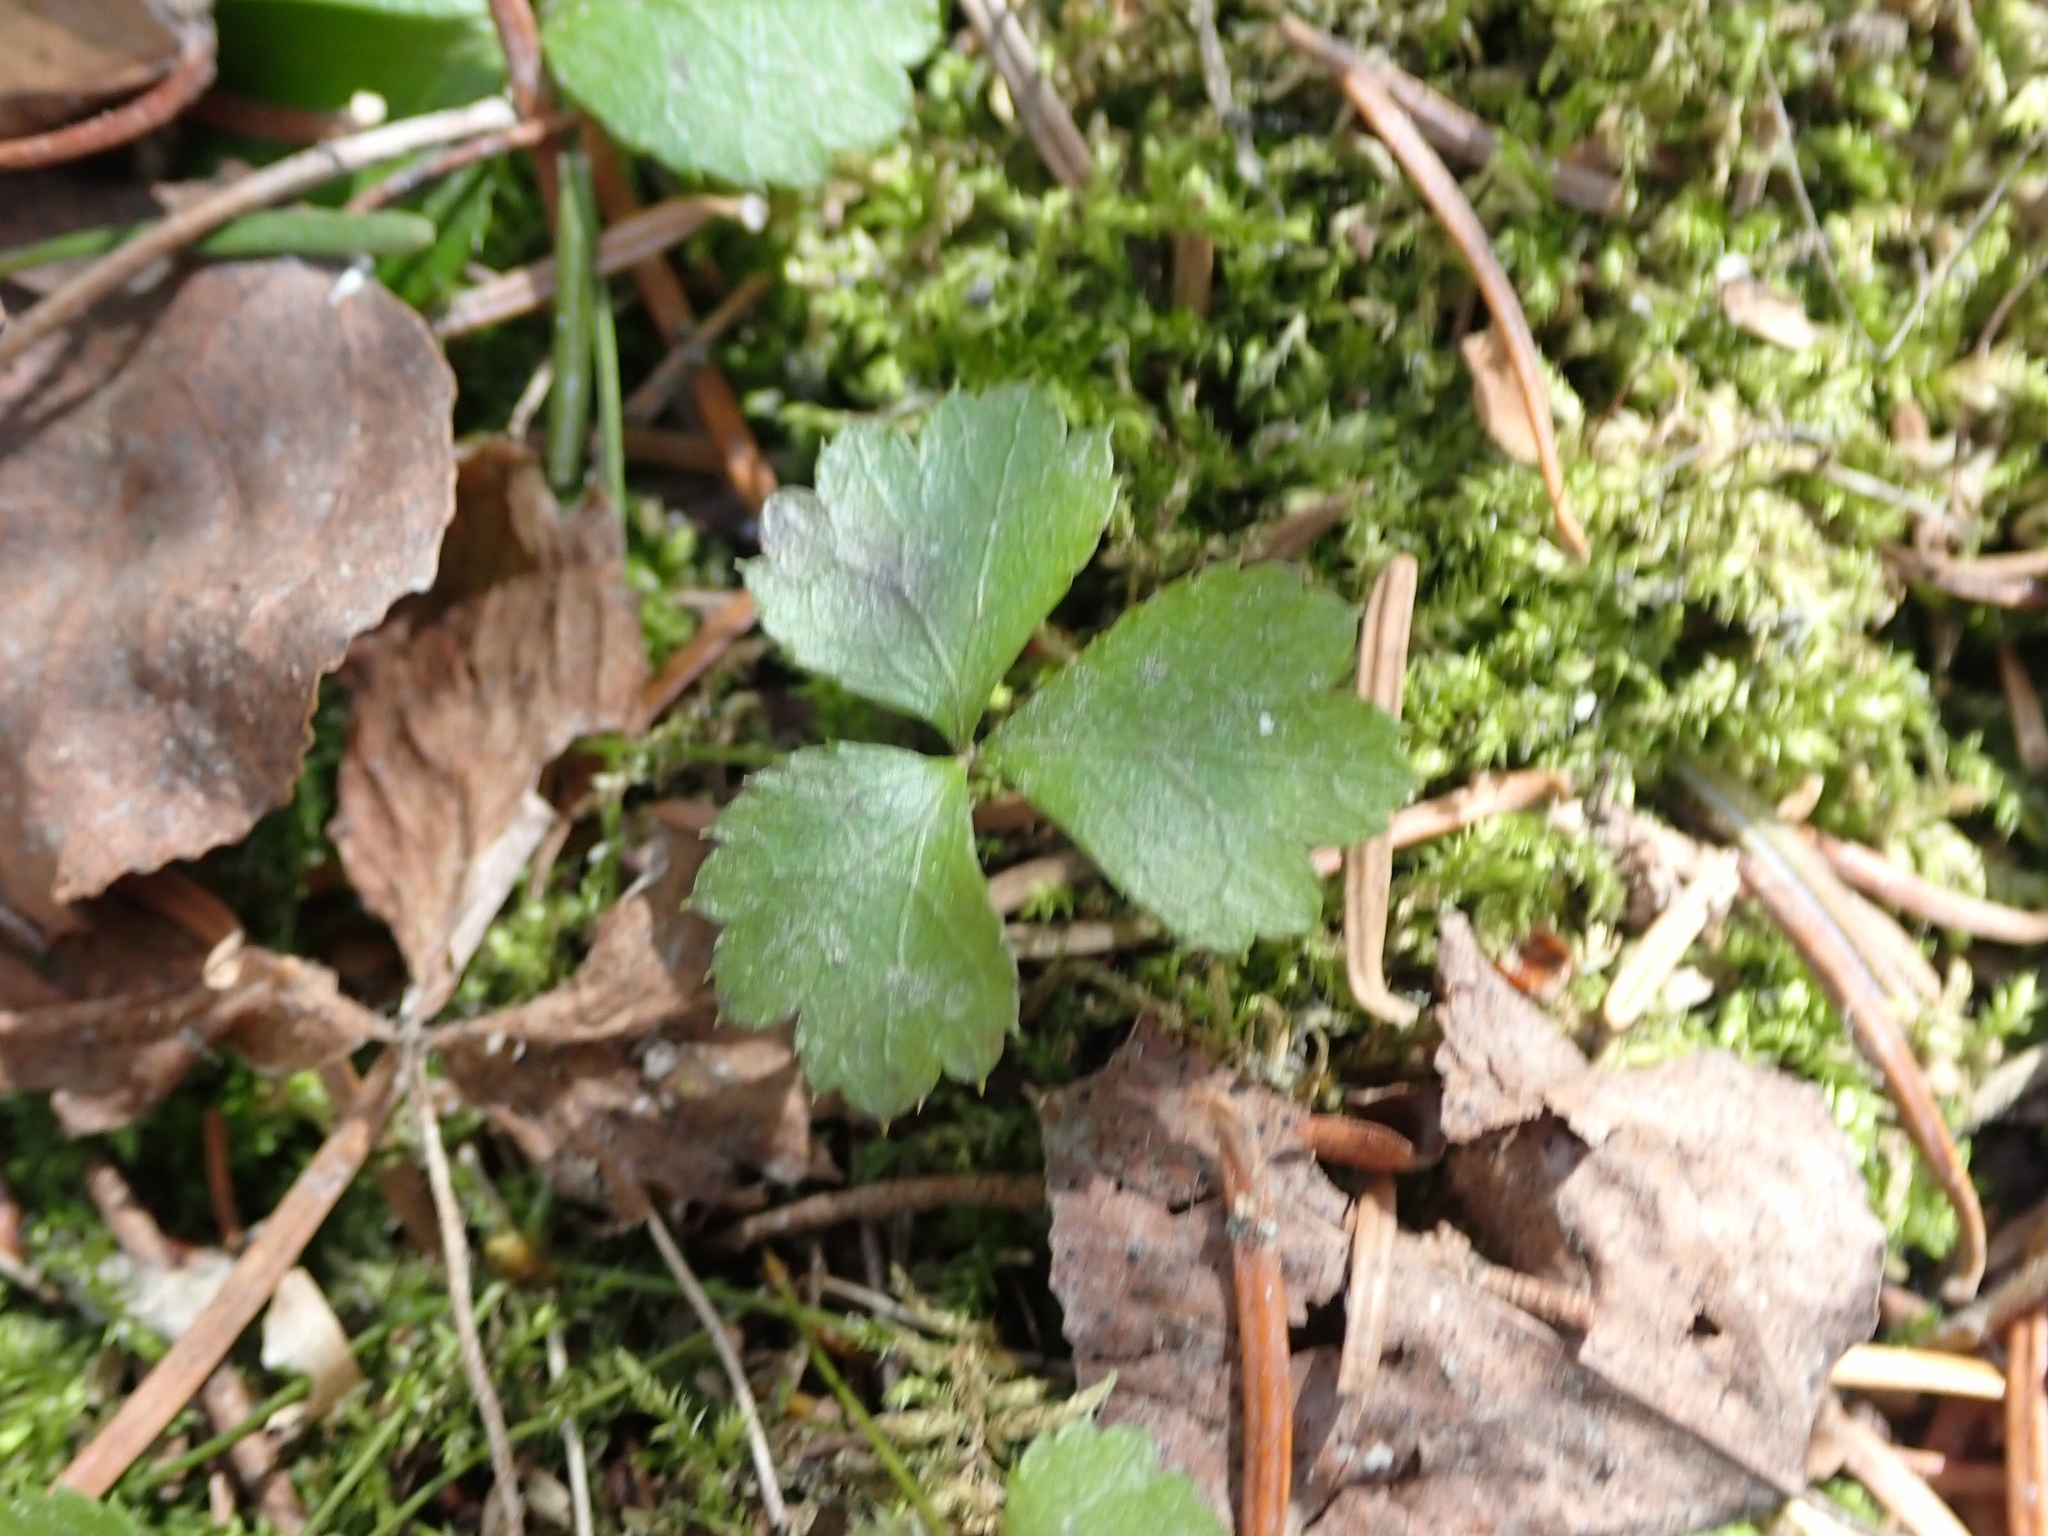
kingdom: Plantae
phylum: Tracheophyta
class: Magnoliopsida
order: Ranunculales
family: Ranunculaceae
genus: Coptis
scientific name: Coptis trifolia
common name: Canker-root
